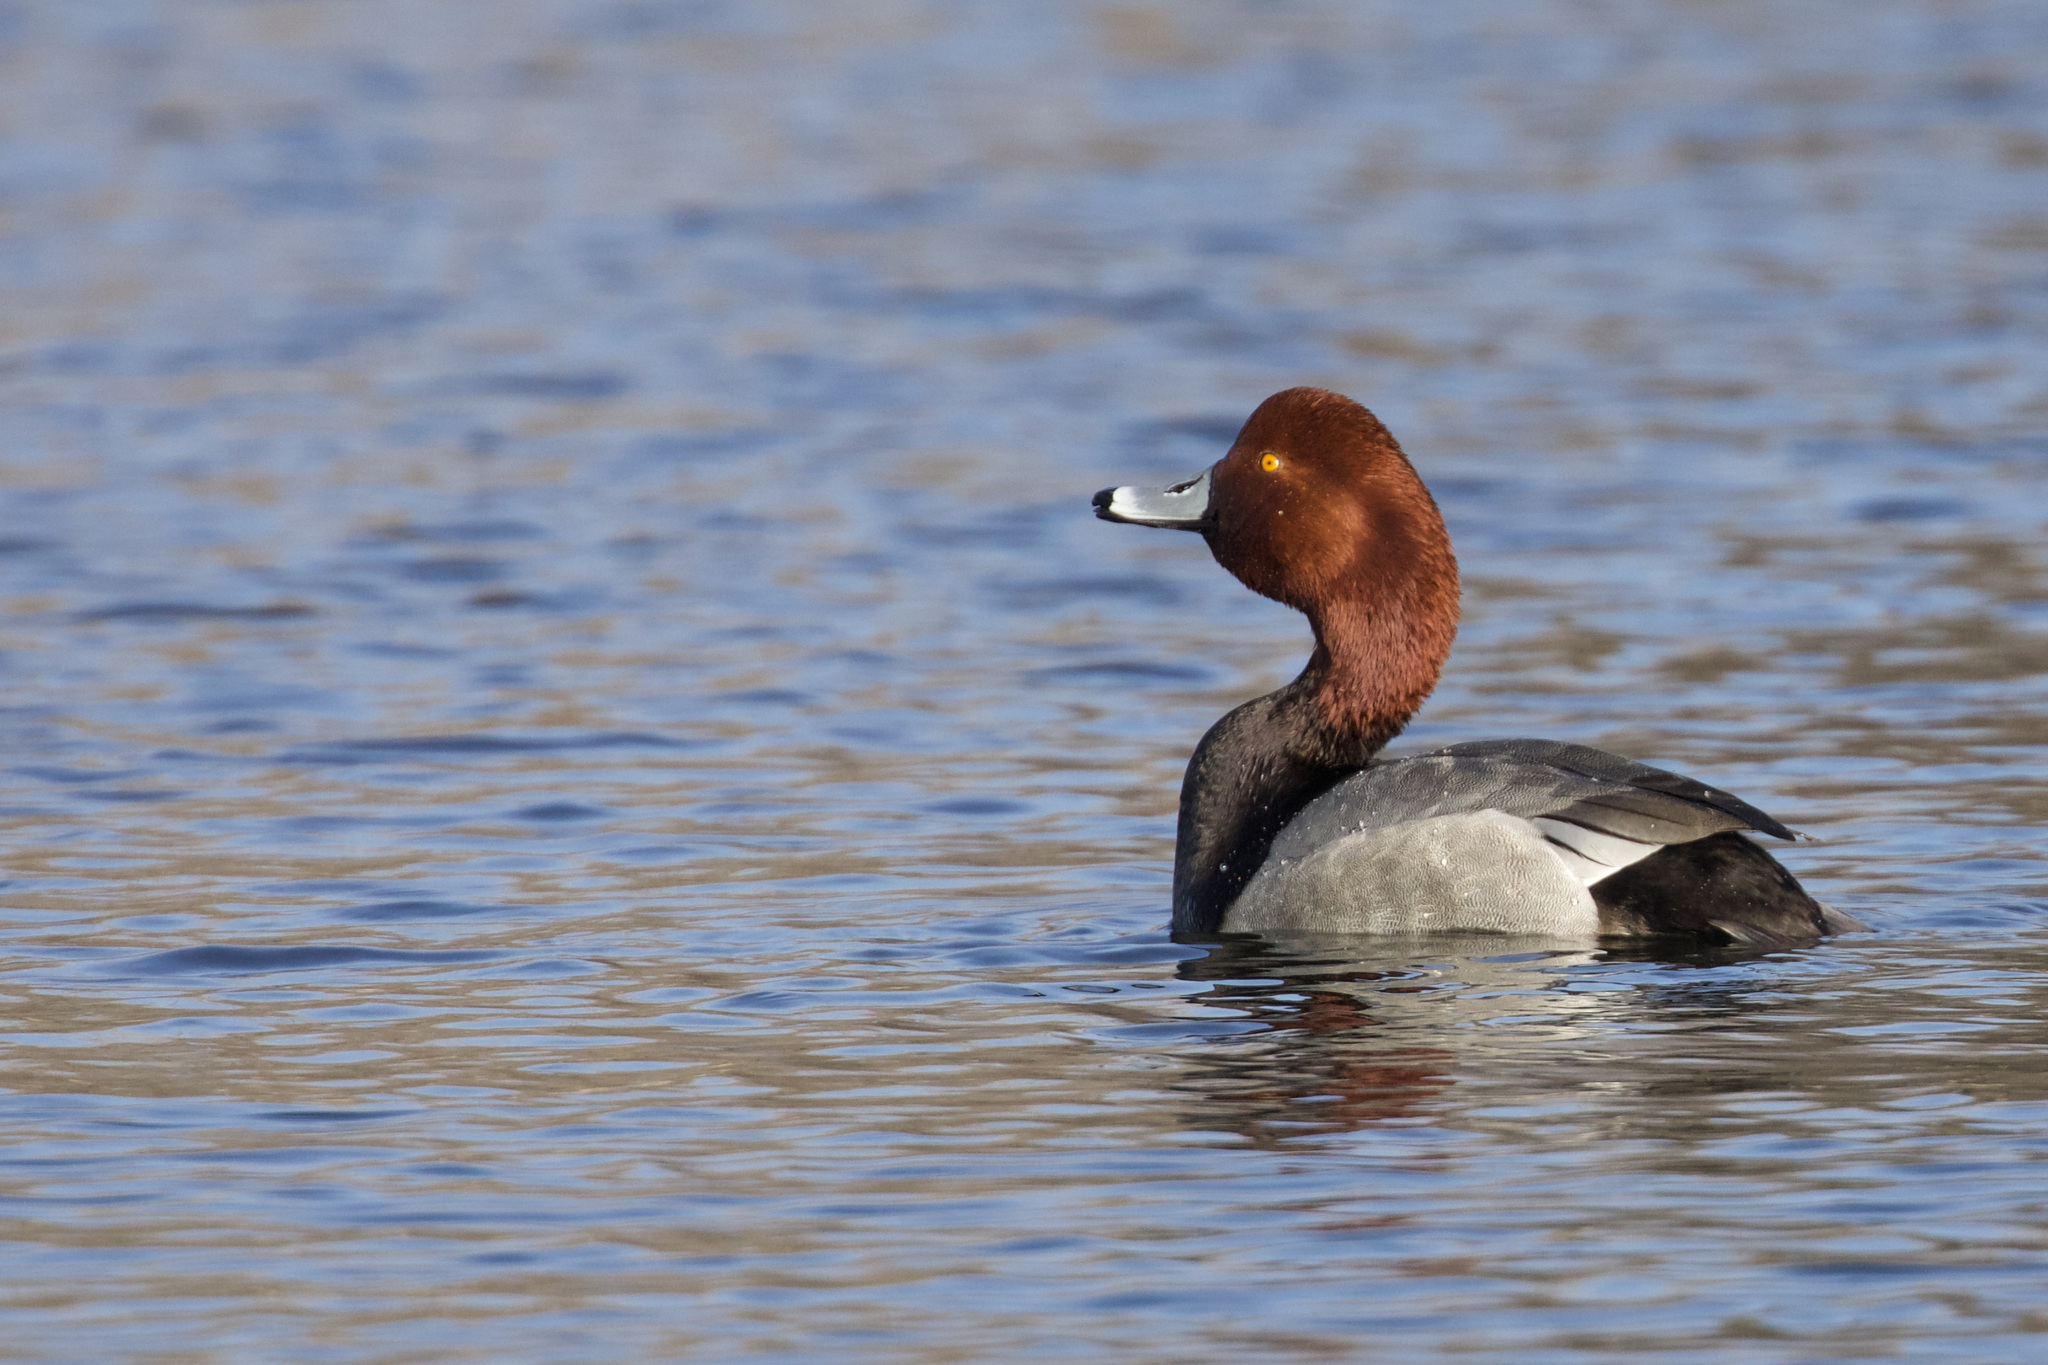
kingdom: Animalia
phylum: Chordata
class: Aves
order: Anseriformes
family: Anatidae
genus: Aythya
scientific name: Aythya americana
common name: Redhead
